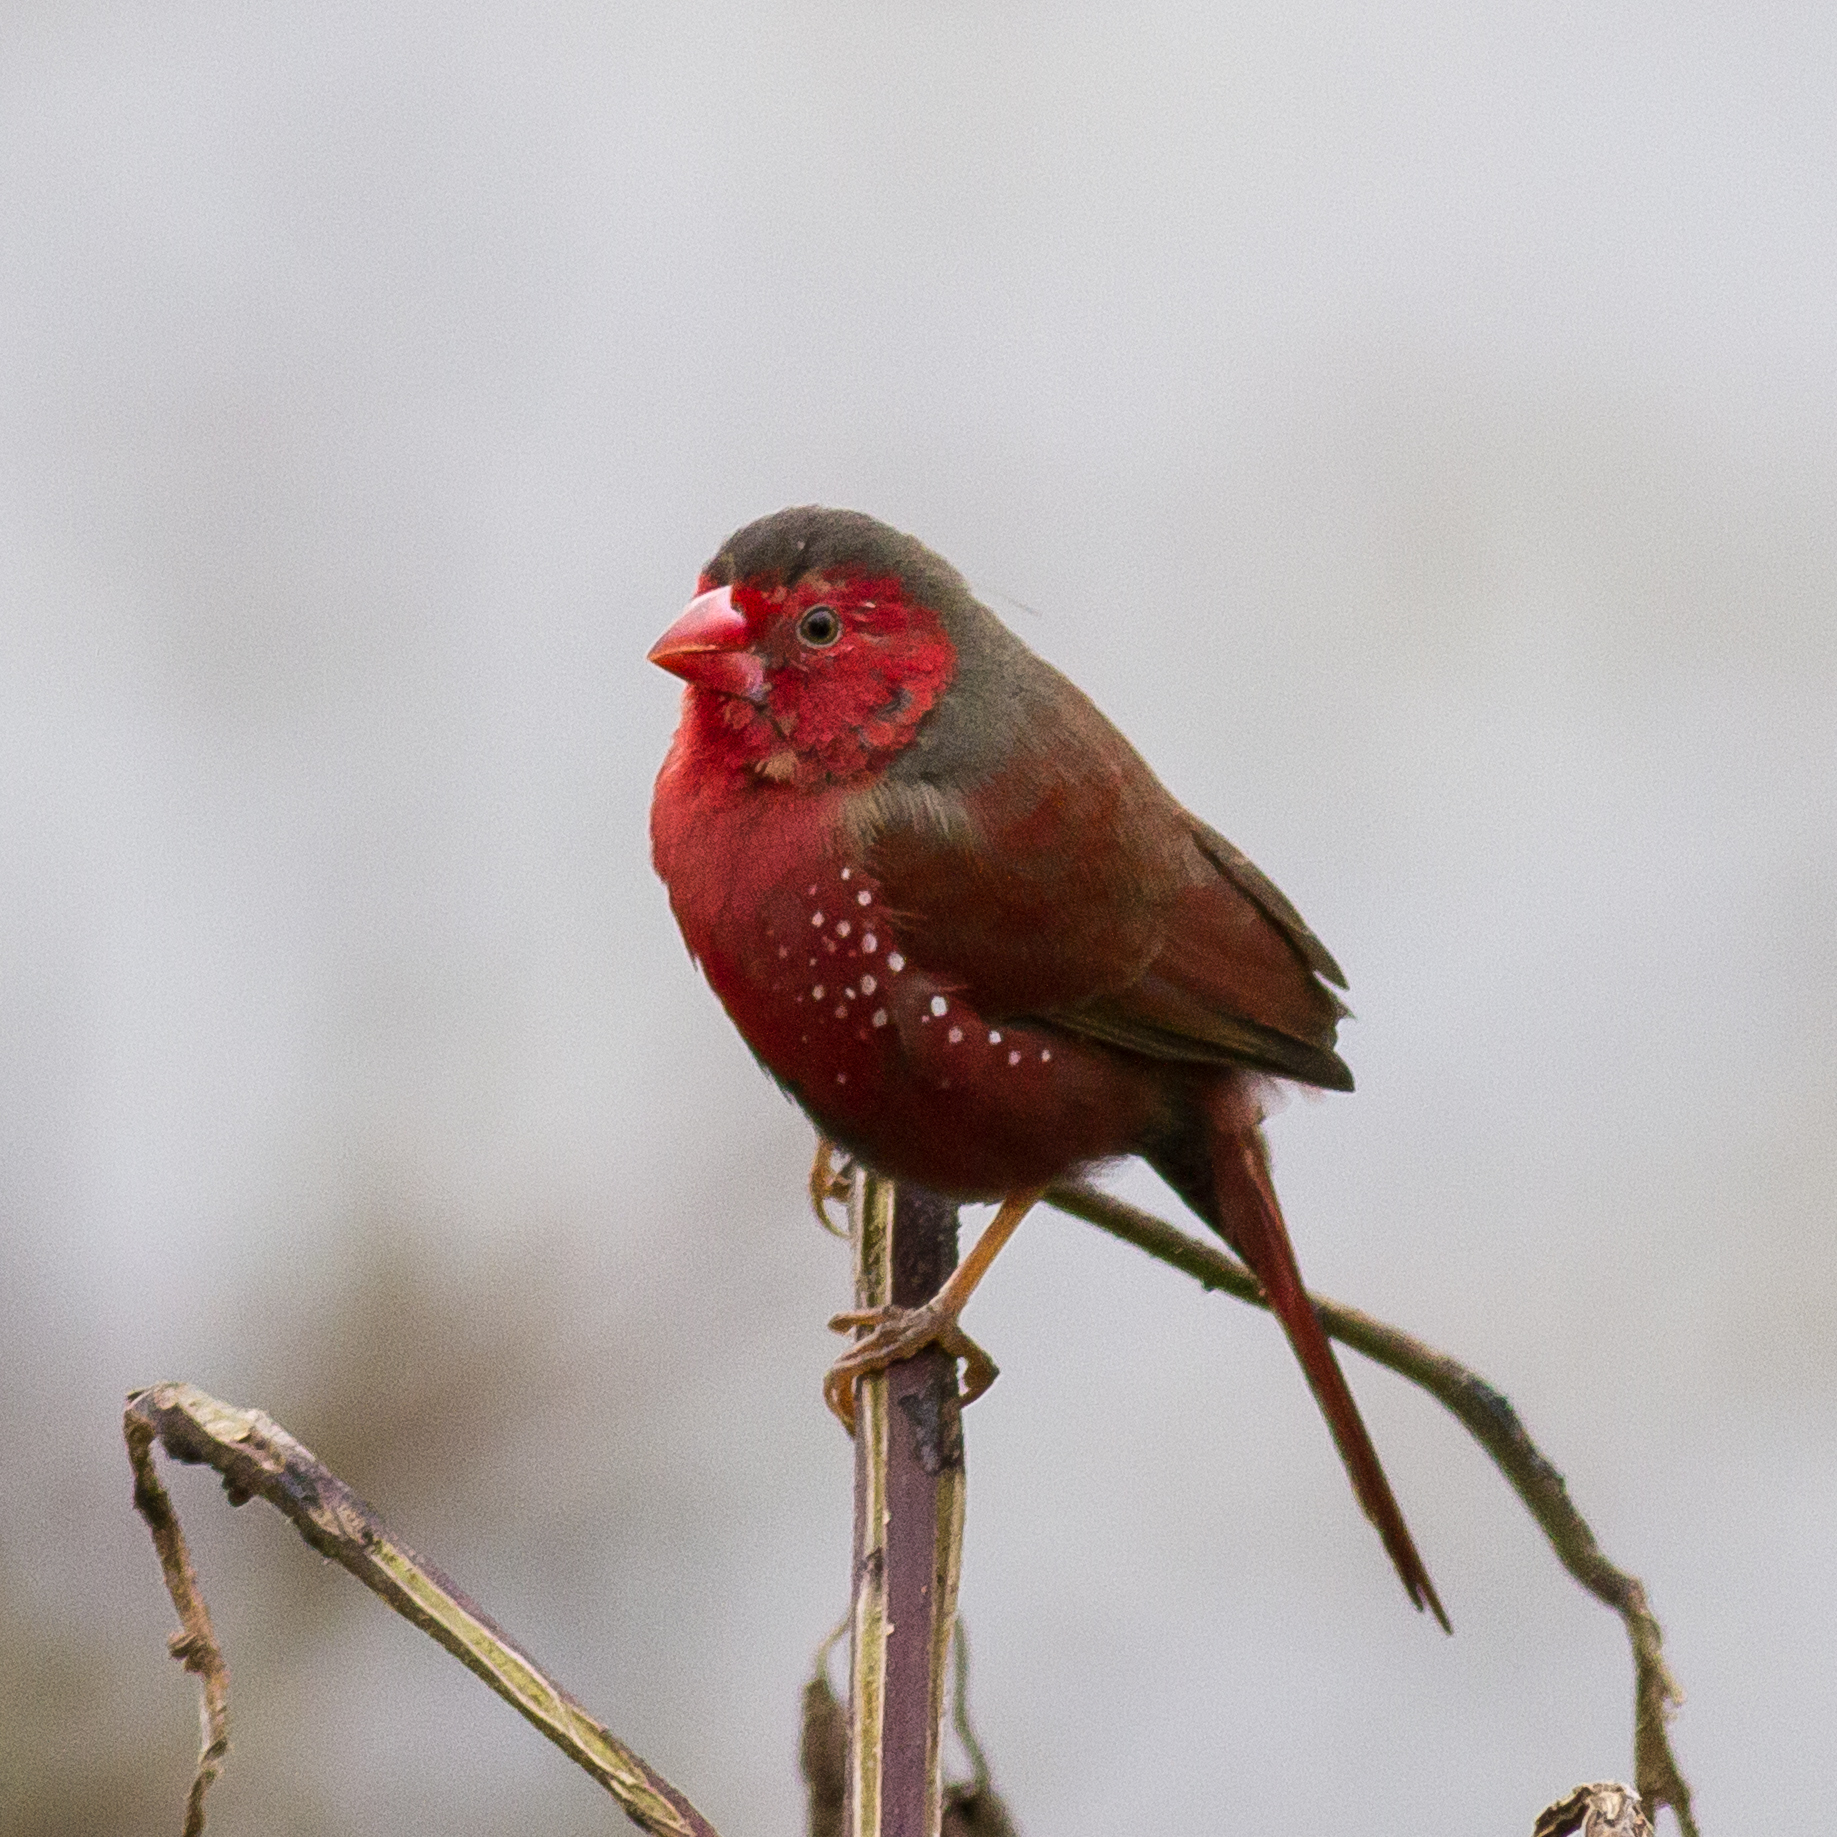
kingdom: Animalia
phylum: Chordata
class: Aves
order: Passeriformes
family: Estrildidae
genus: Neochmia
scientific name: Neochmia phaeton
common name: Crimson finch
